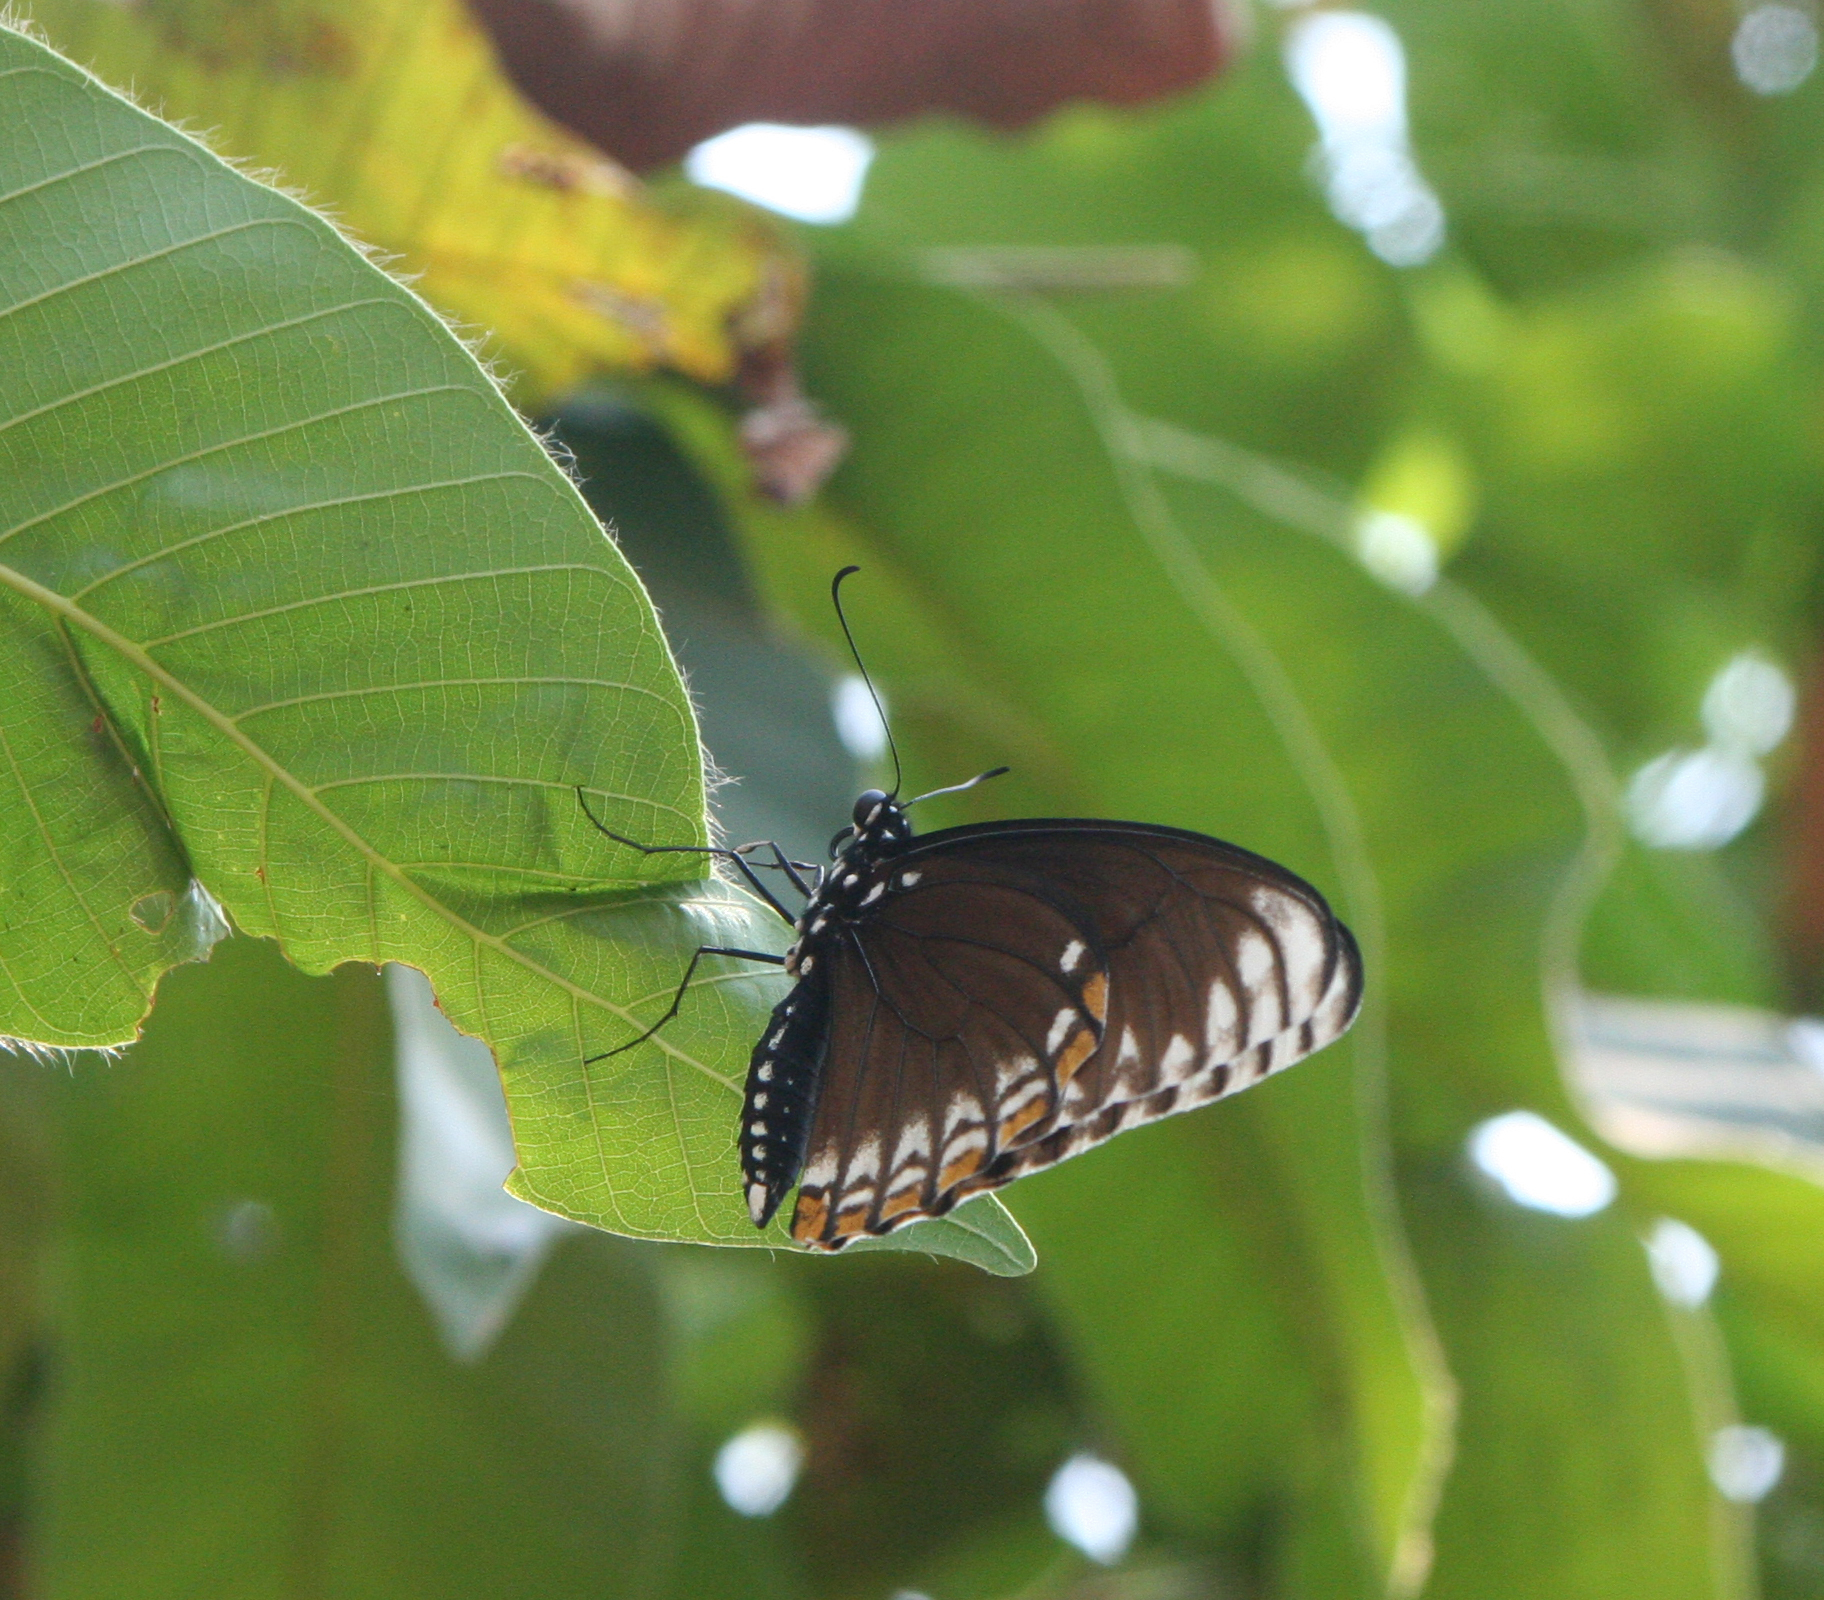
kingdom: Animalia
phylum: Arthropoda
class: Insecta
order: Lepidoptera
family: Papilionidae
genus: Chilasa
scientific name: Chilasa clytia
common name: Common mime
